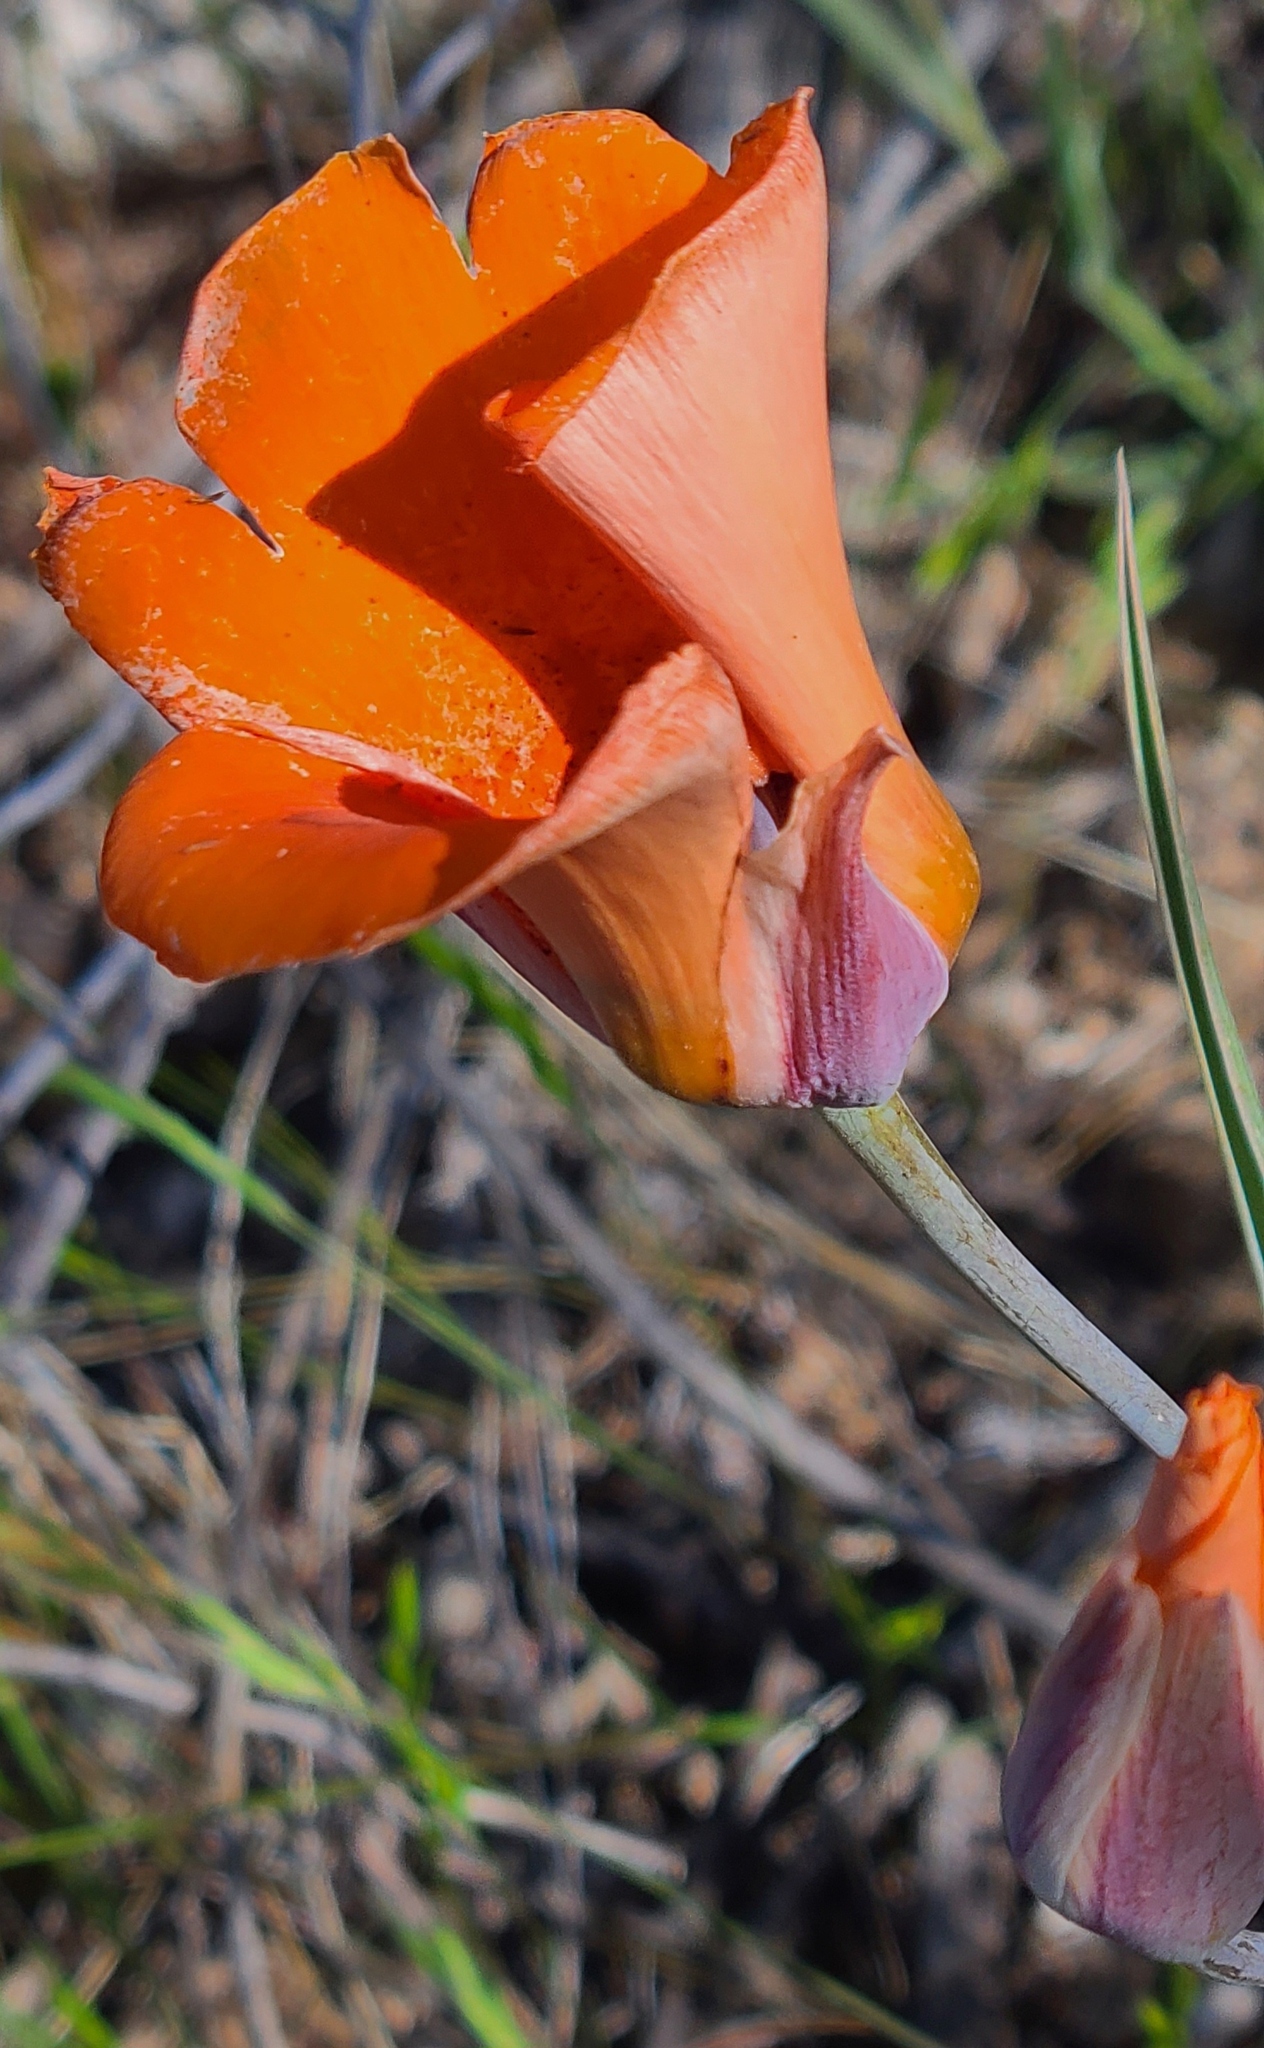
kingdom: Plantae
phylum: Tracheophyta
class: Liliopsida
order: Liliales
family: Liliaceae
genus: Calochortus
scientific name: Calochortus kennedyi
